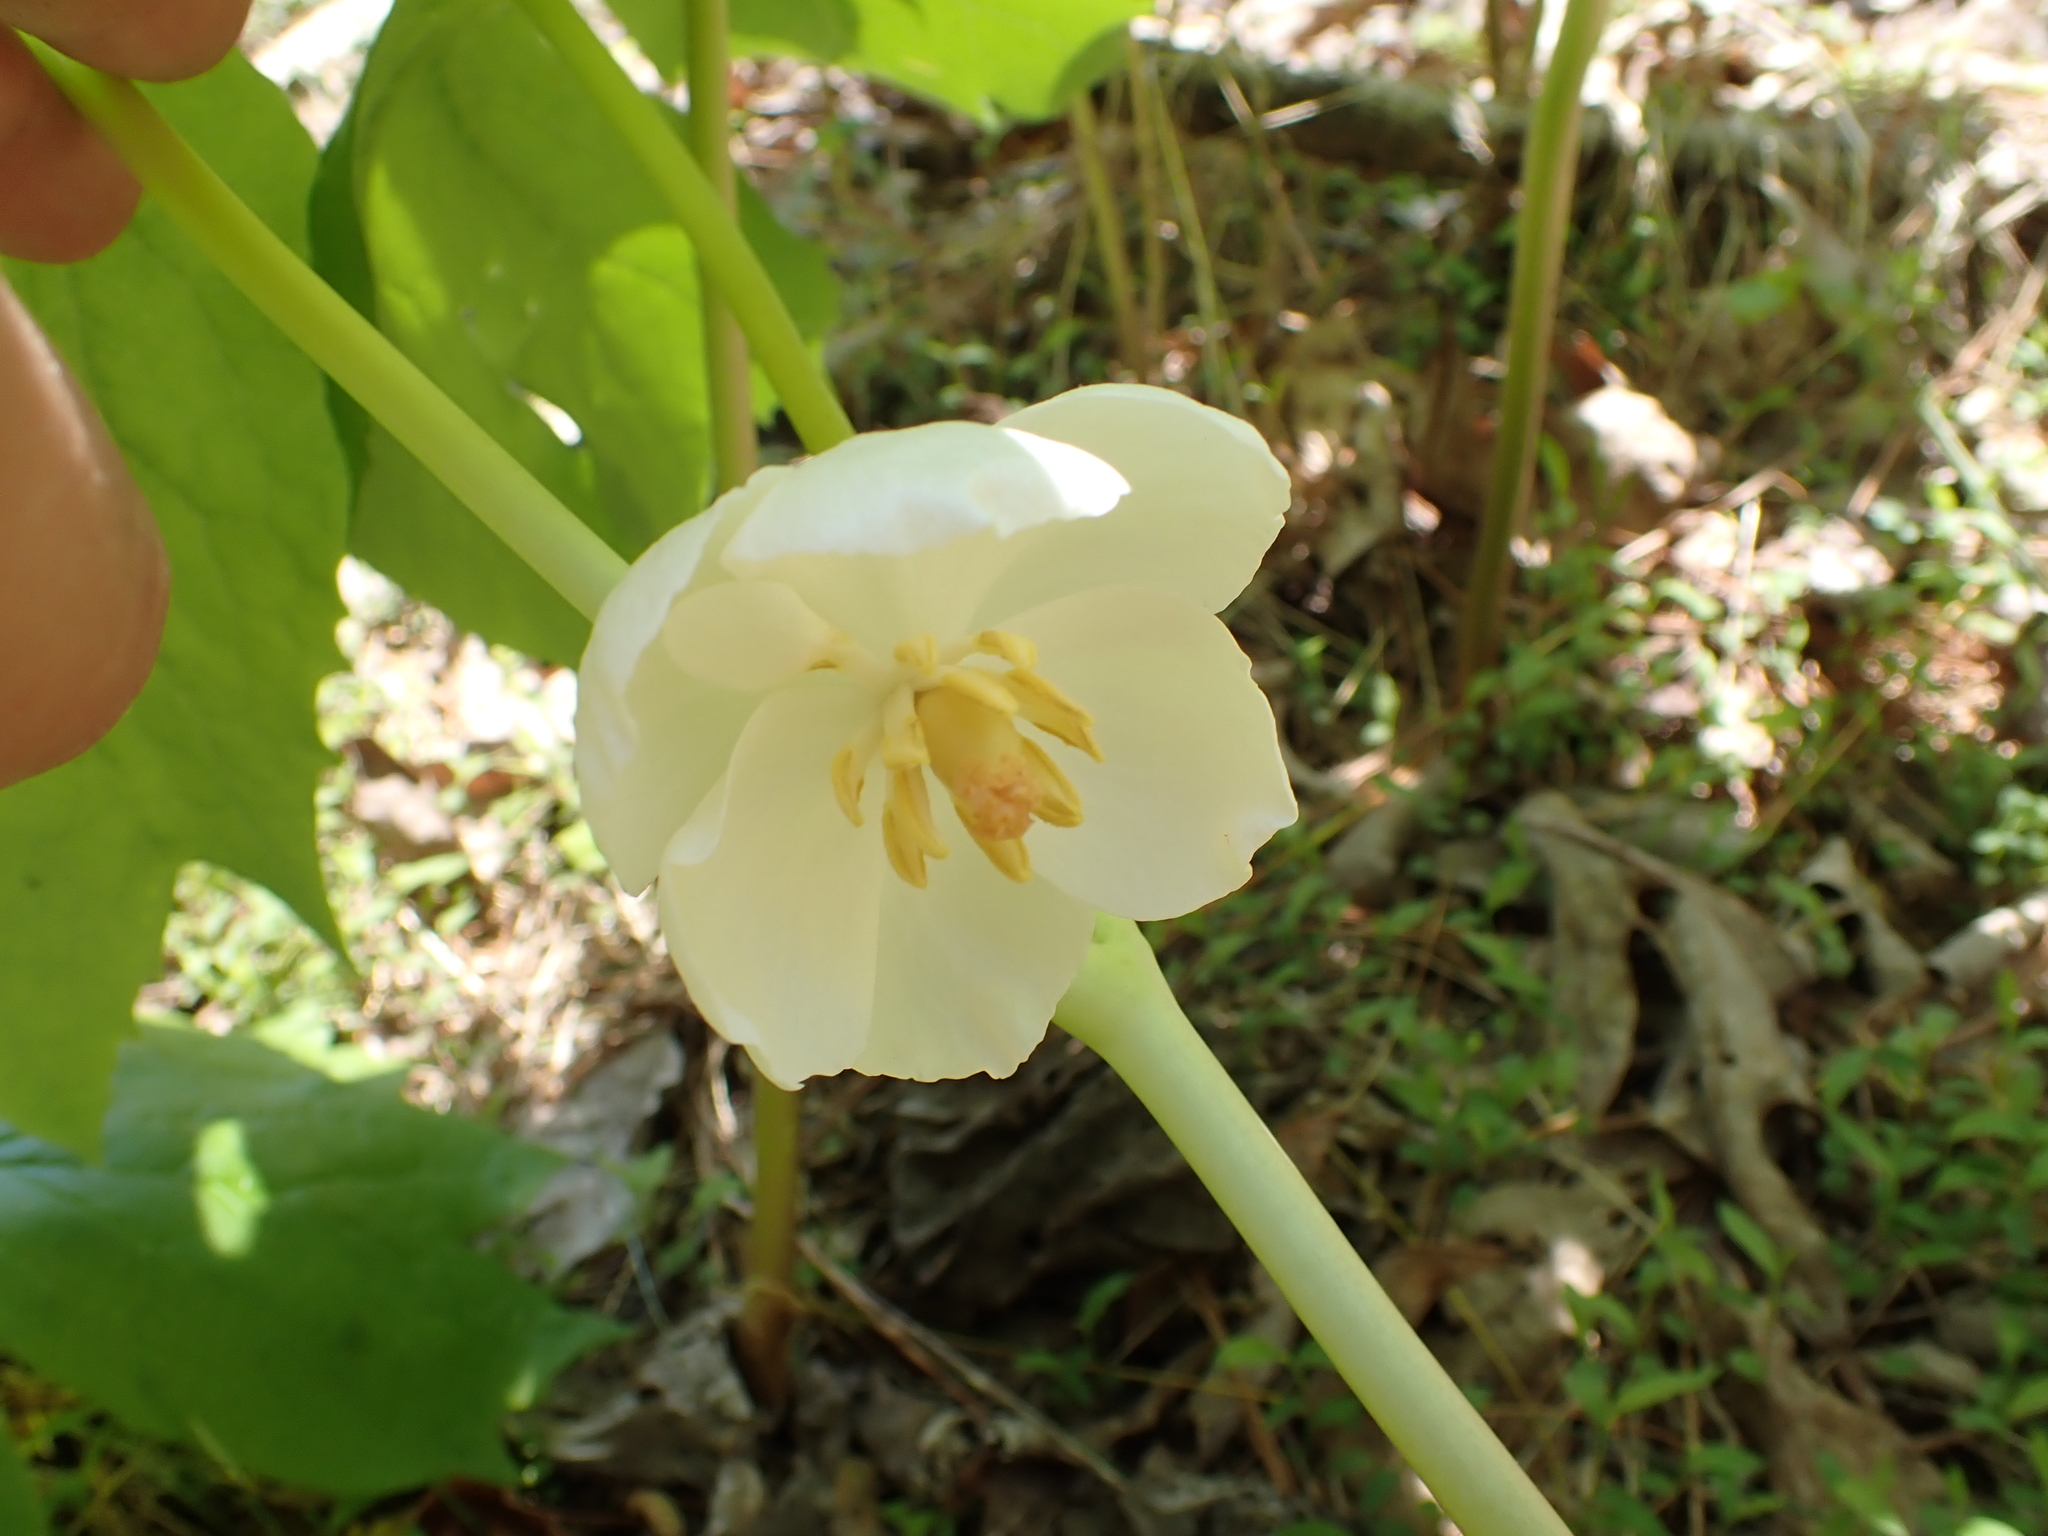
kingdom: Plantae
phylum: Tracheophyta
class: Magnoliopsida
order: Ranunculales
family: Berberidaceae
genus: Podophyllum
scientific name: Podophyllum peltatum
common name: Wild mandrake
